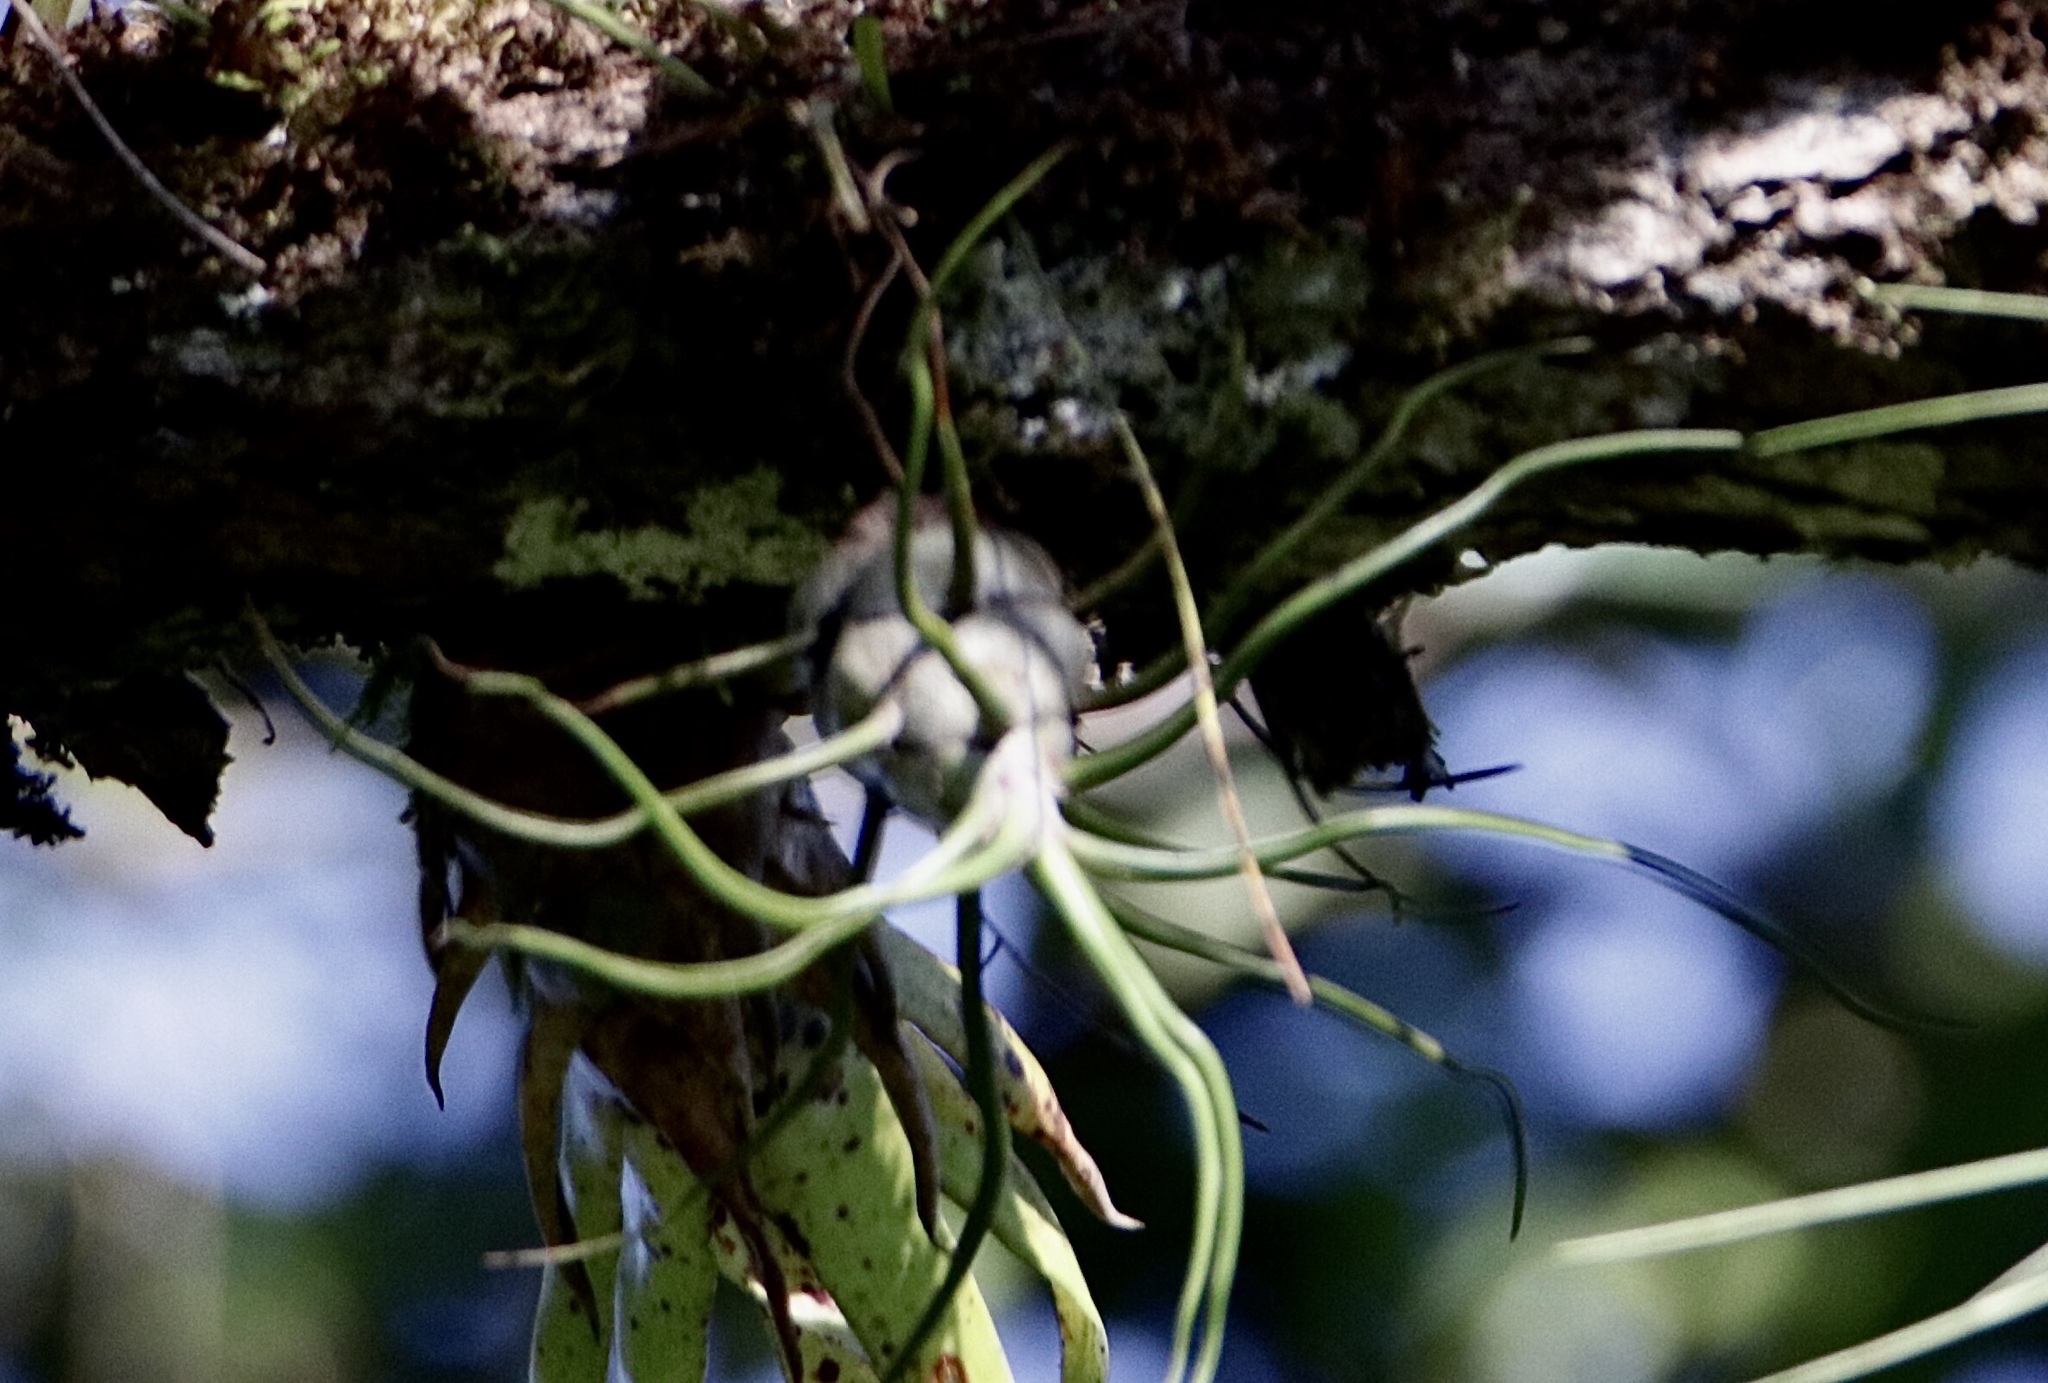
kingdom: Plantae
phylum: Tracheophyta
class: Liliopsida
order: Poales
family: Bromeliaceae
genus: Tillandsia
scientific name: Tillandsia bulbosa
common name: Bulbous airplant
